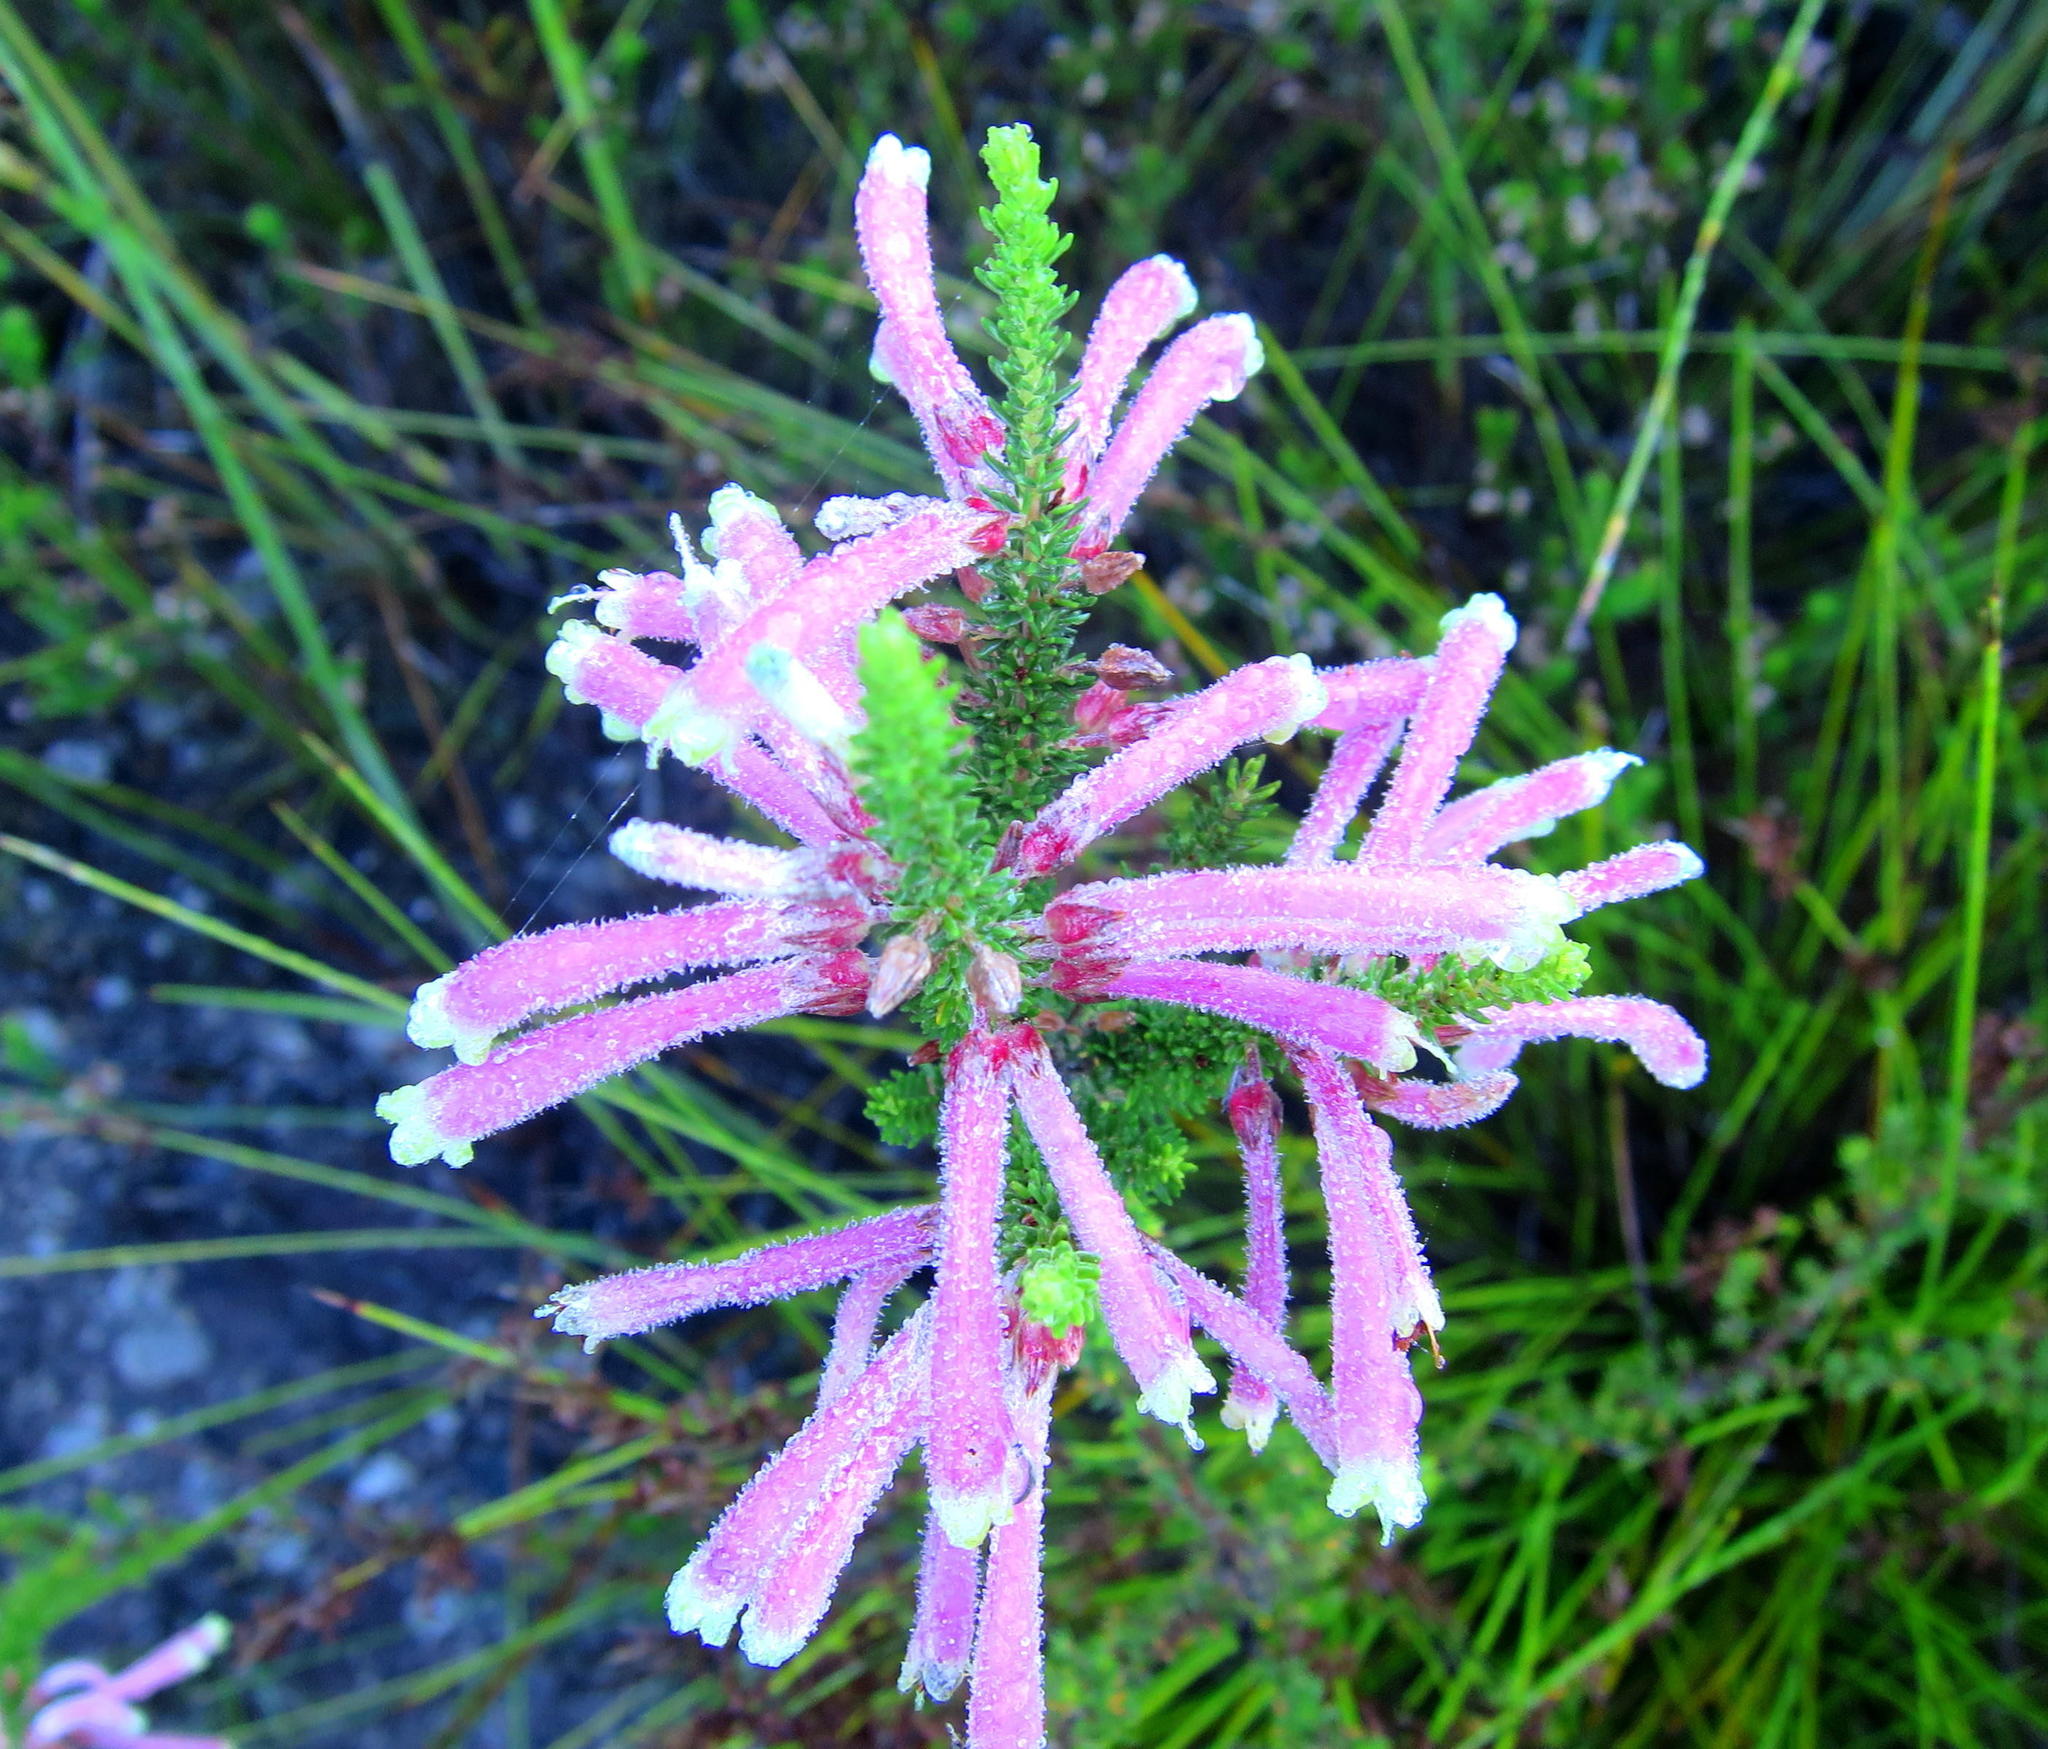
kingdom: Plantae
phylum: Tracheophyta
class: Magnoliopsida
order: Ericales
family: Ericaceae
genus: Erica
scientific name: Erica densifolia
